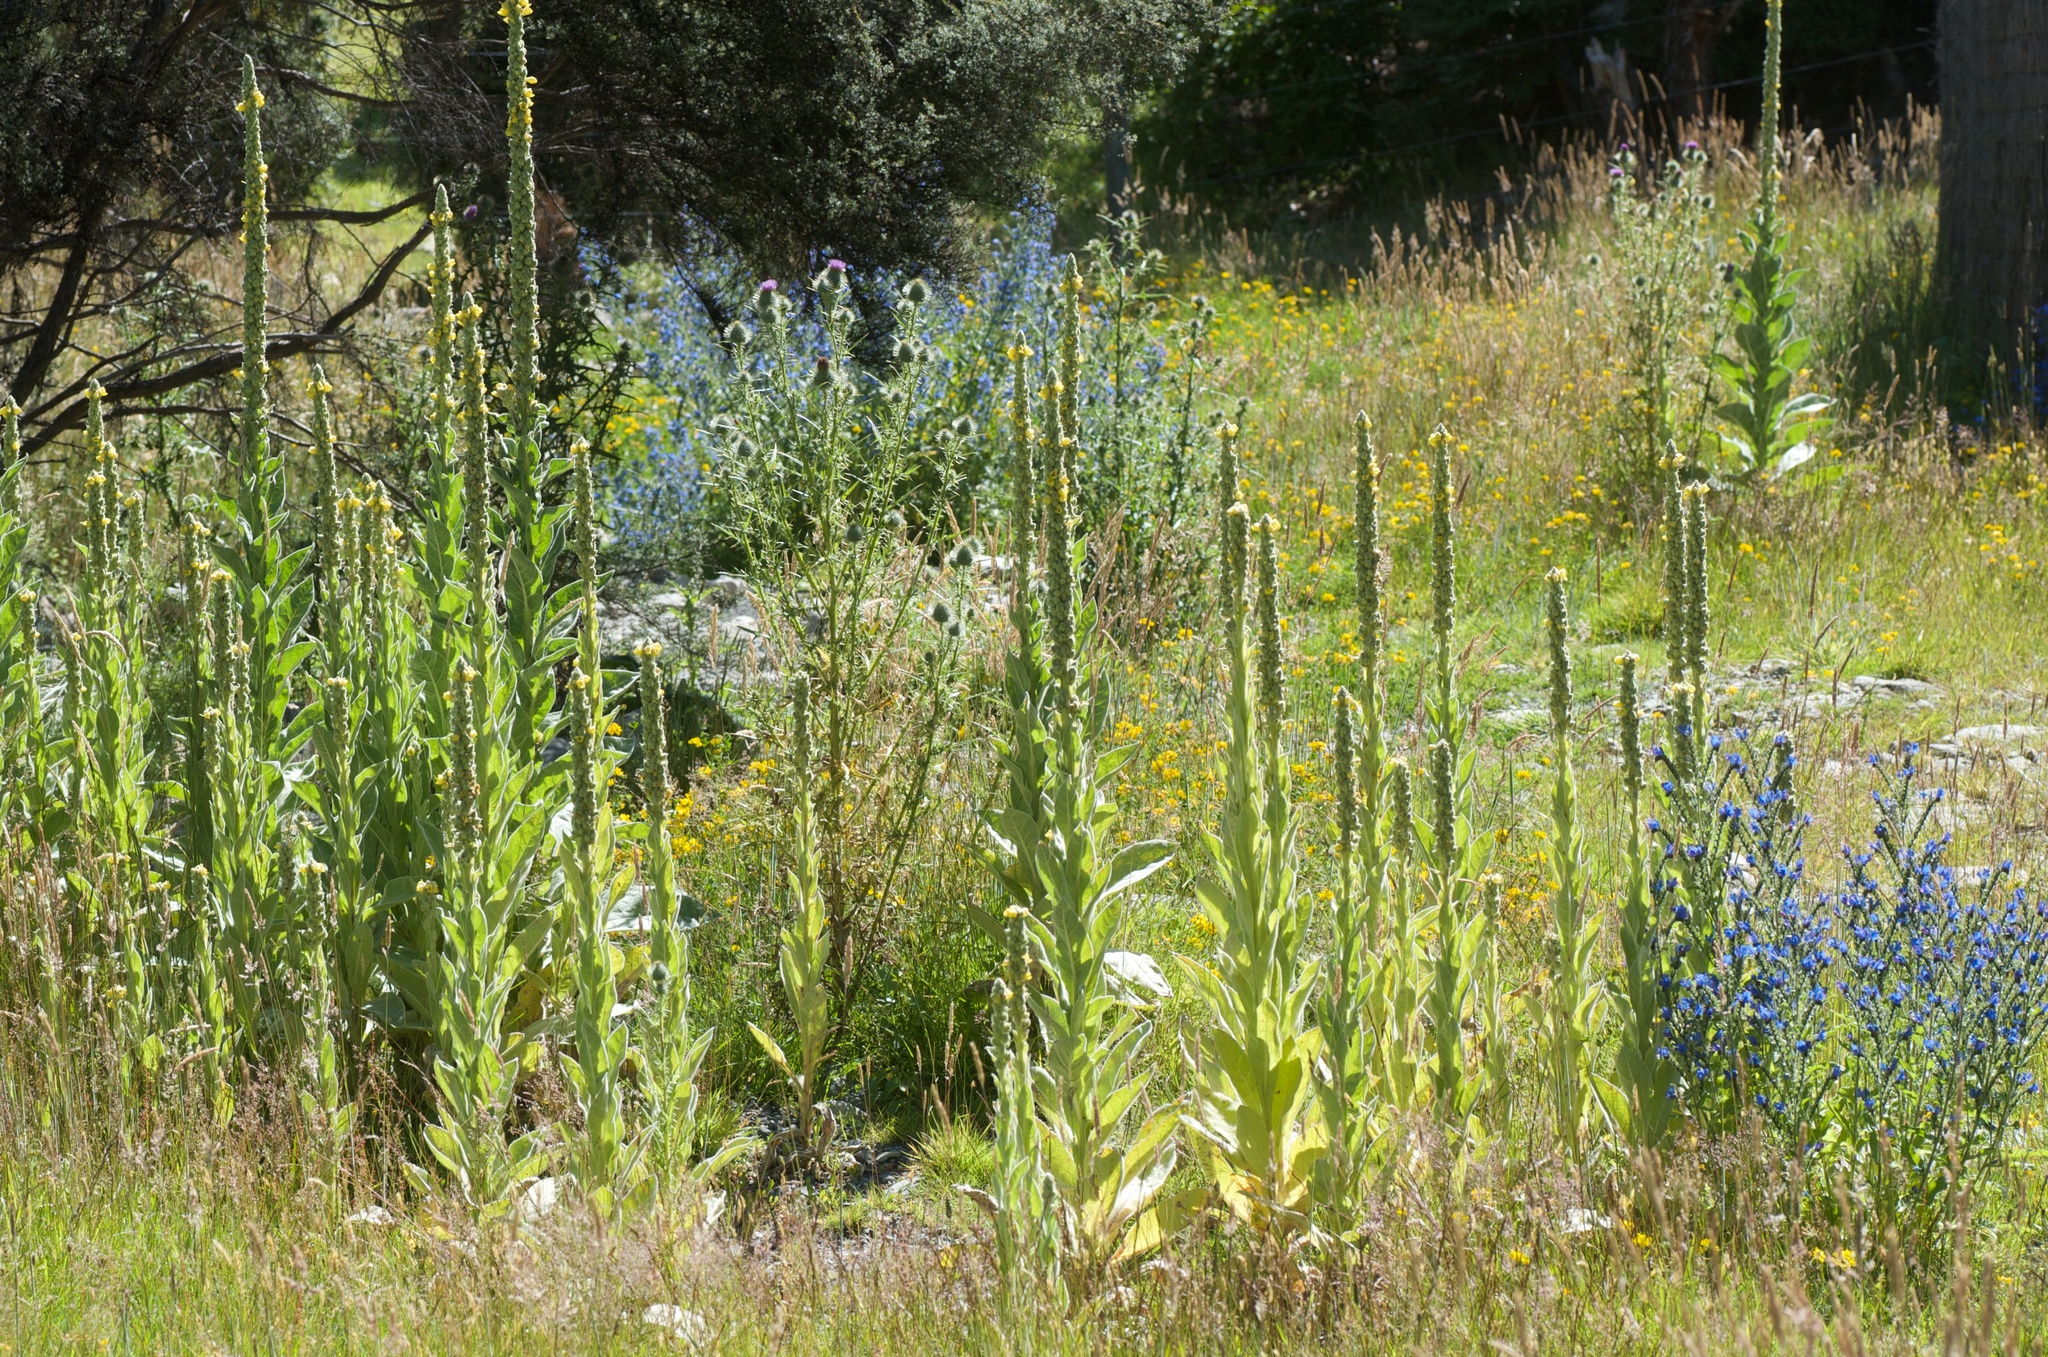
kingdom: Plantae
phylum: Tracheophyta
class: Magnoliopsida
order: Lamiales
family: Scrophulariaceae
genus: Verbascum
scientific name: Verbascum thapsus
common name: Common mullein
